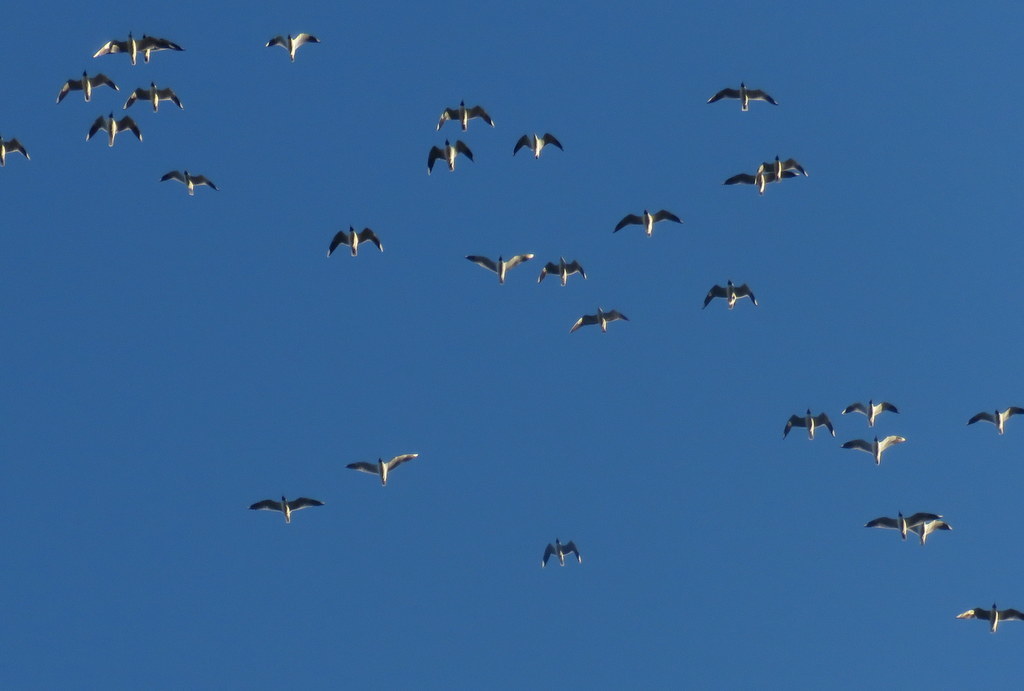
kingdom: Animalia
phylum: Chordata
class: Aves
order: Charadriiformes
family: Laridae
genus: Chroicocephalus
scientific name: Chroicocephalus maculipennis
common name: Brown-hooded gull
